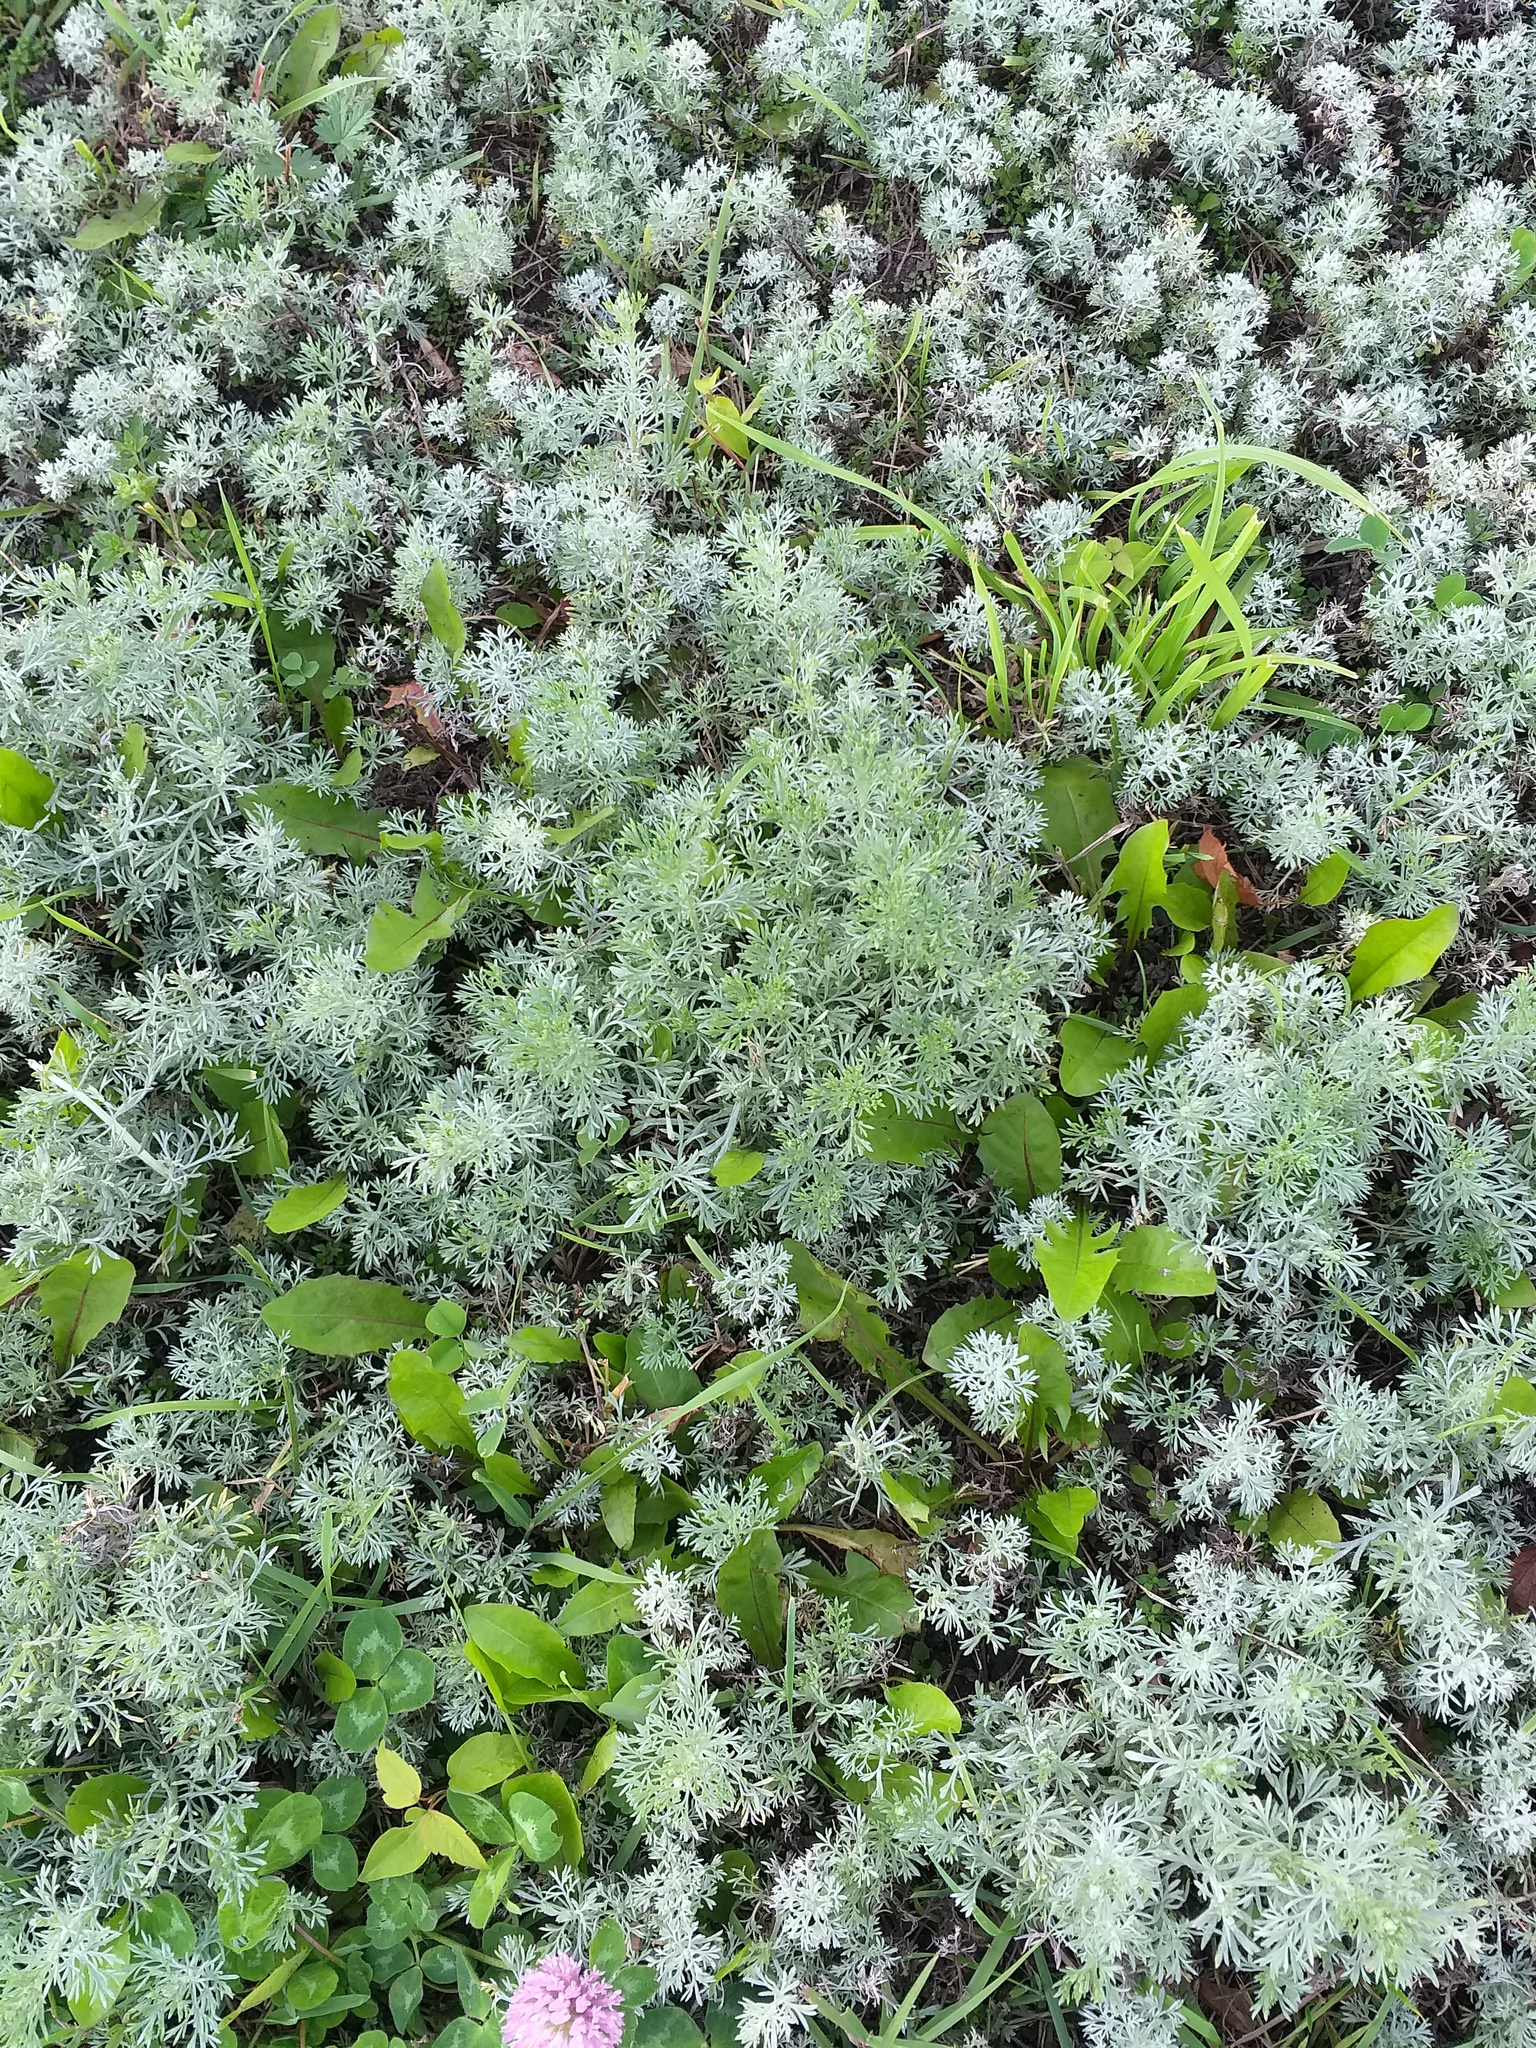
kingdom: Plantae
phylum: Tracheophyta
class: Magnoliopsida
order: Asterales
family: Asteraceae
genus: Artemisia
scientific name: Artemisia austriaca
